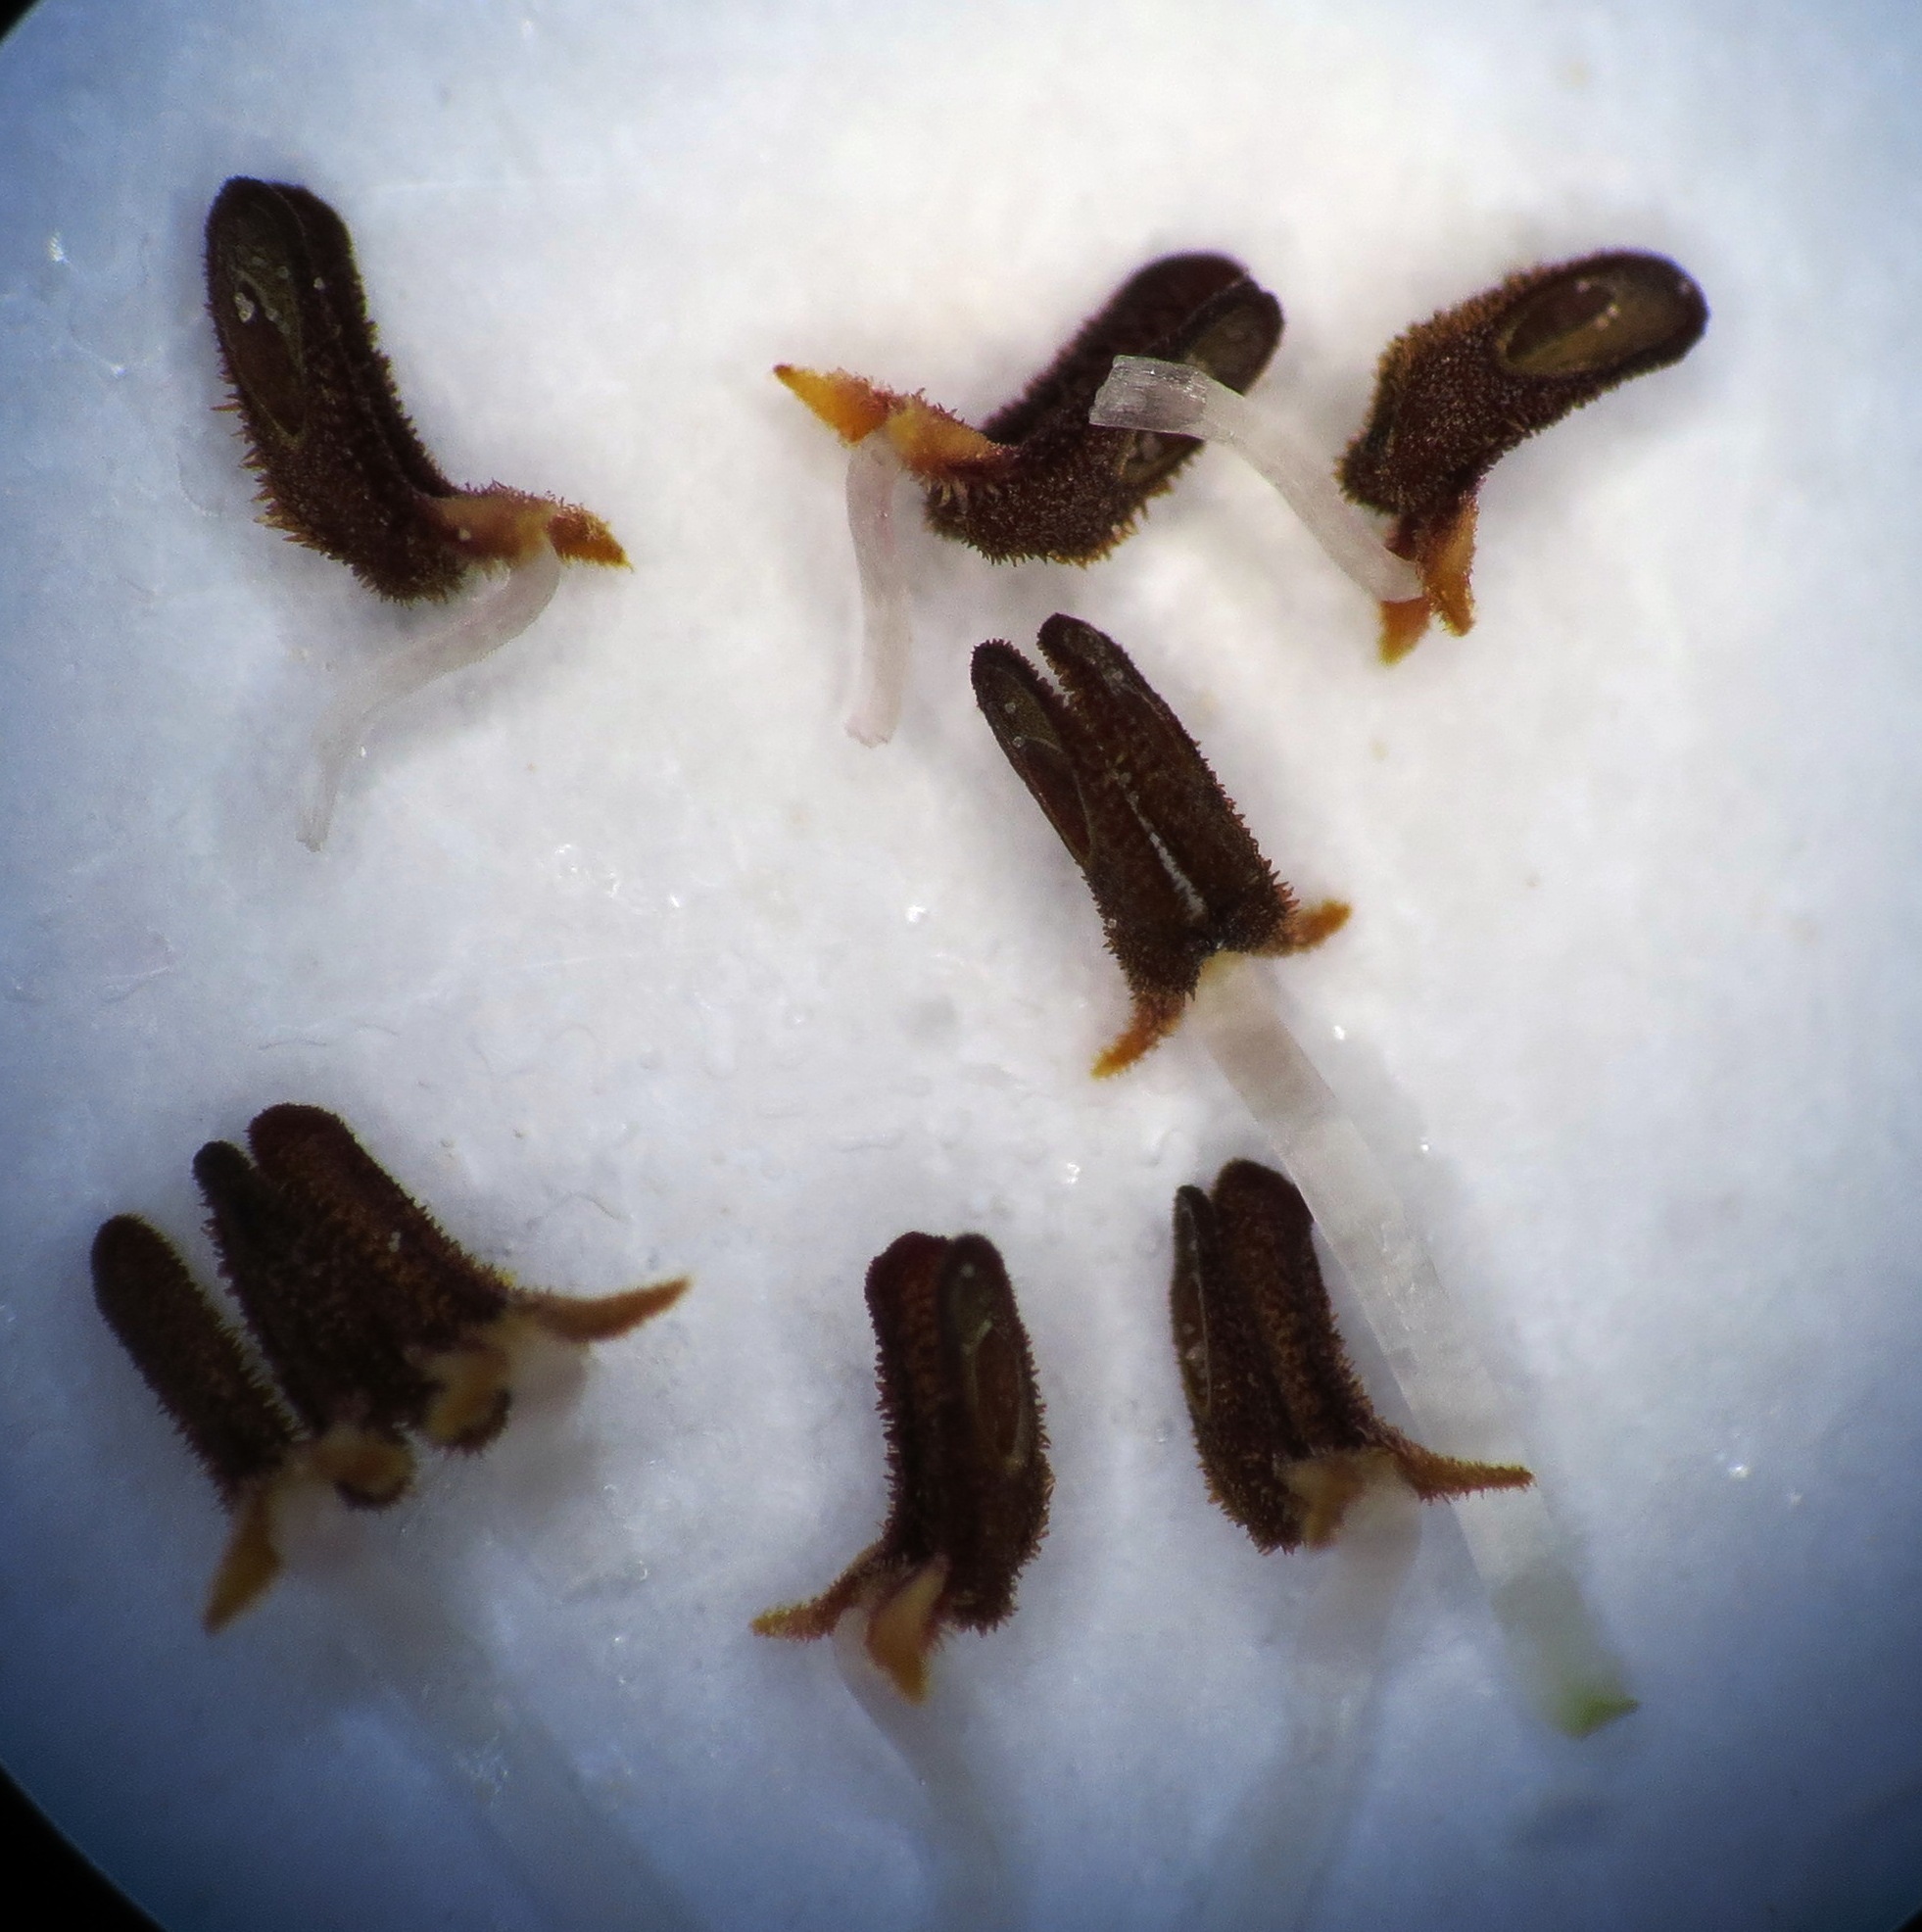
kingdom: Plantae
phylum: Tracheophyta
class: Magnoliopsida
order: Ericales
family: Ericaceae
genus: Erica
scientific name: Erica excavata
